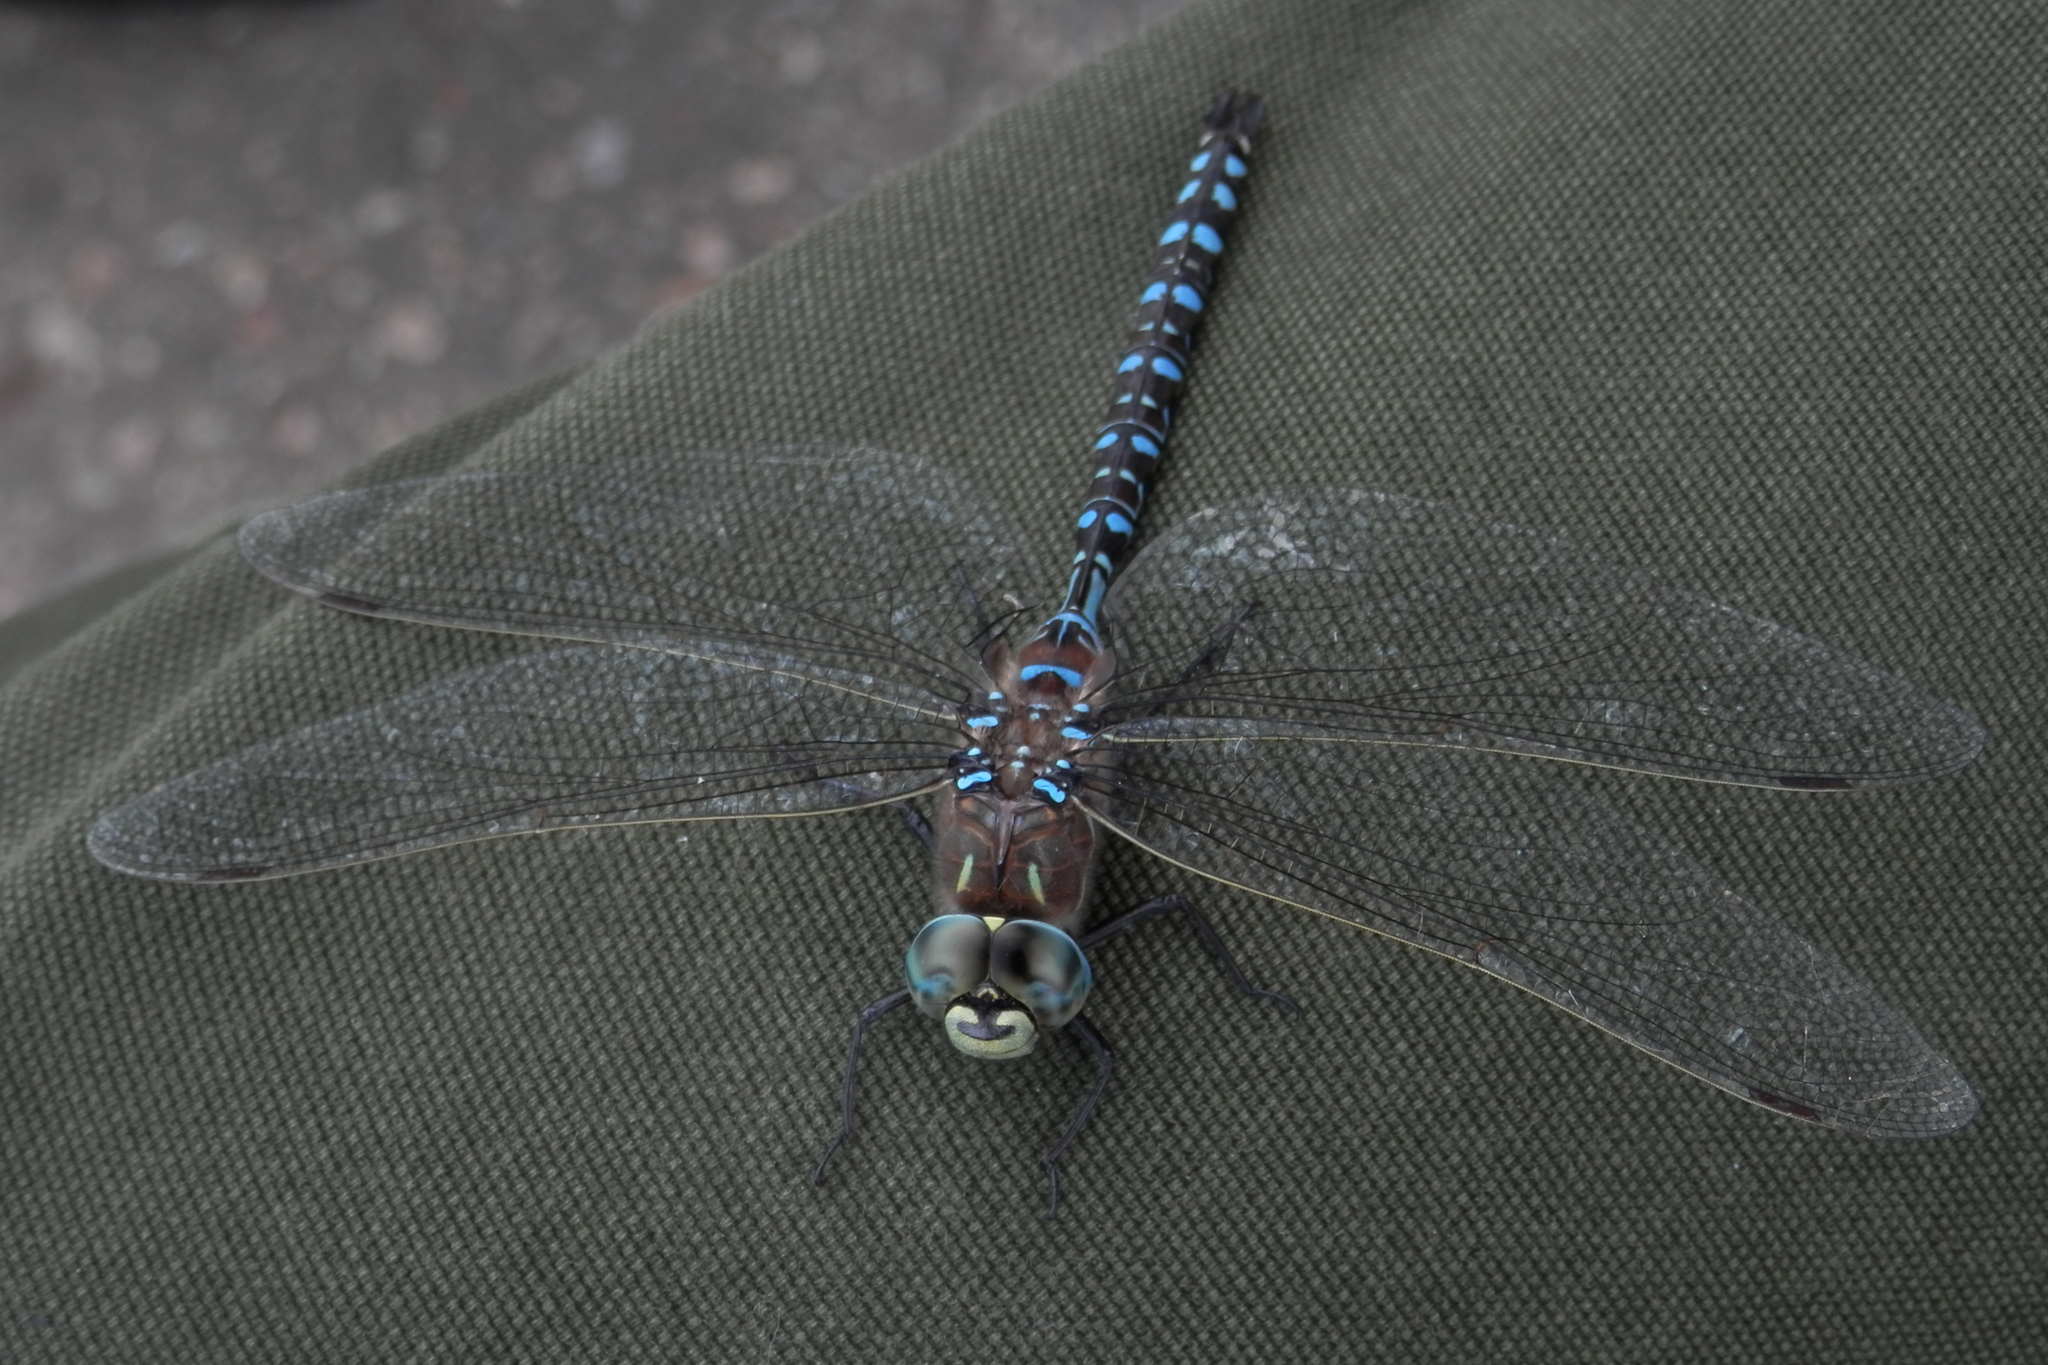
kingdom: Animalia
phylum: Arthropoda
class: Insecta
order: Odonata
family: Aeshnidae
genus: Aeshna
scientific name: Aeshna interrupta
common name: Variable darner
